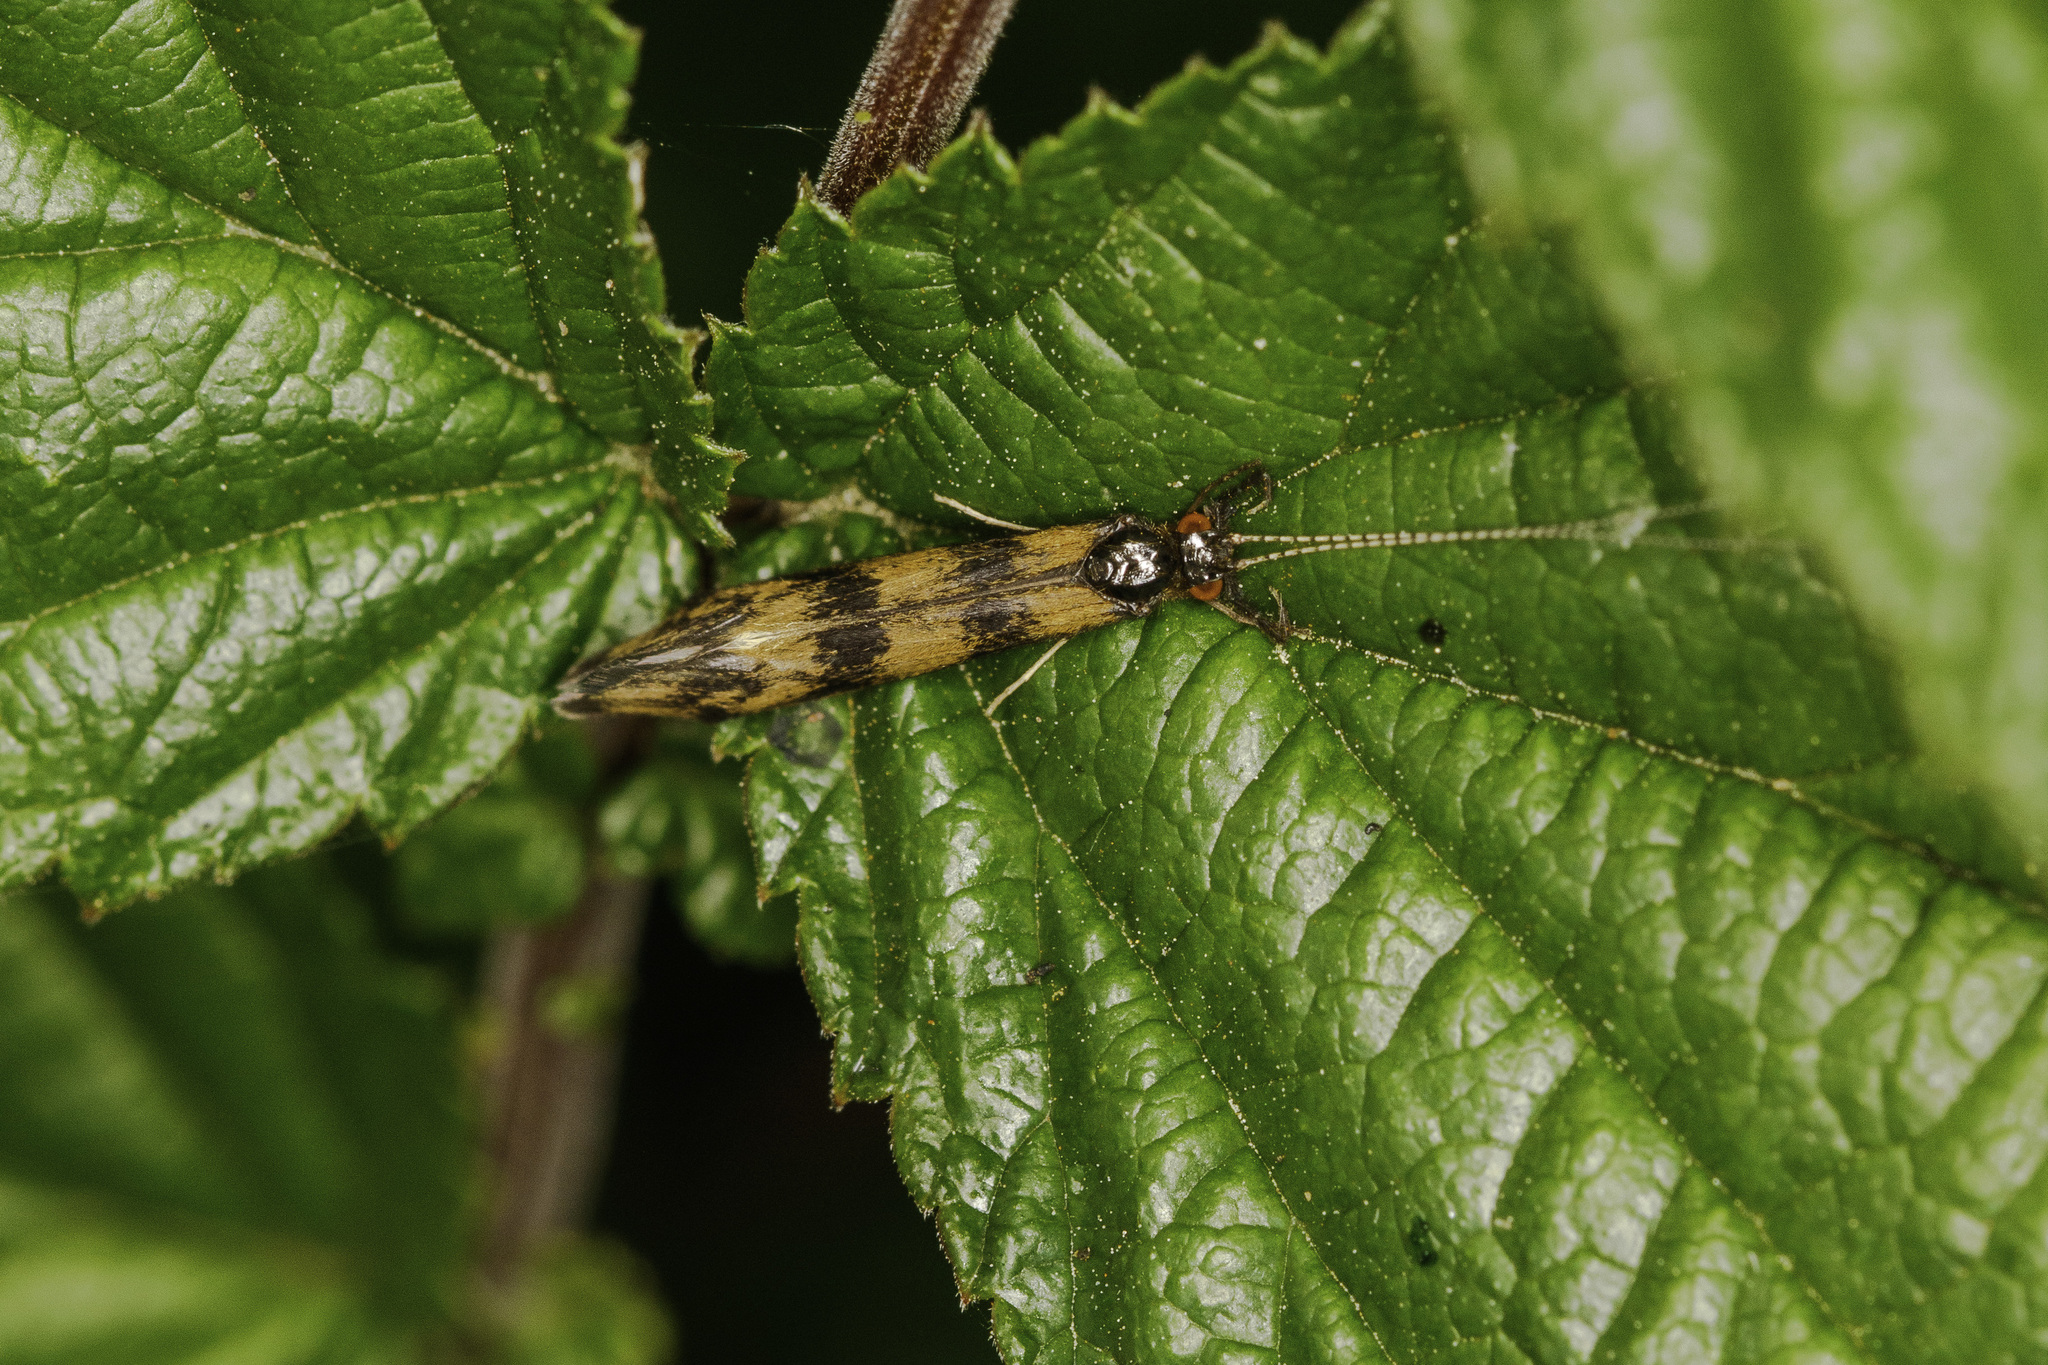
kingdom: Animalia
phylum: Arthropoda
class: Insecta
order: Trichoptera
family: Leptoceridae
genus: Mystacides
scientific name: Mystacides longicornis
